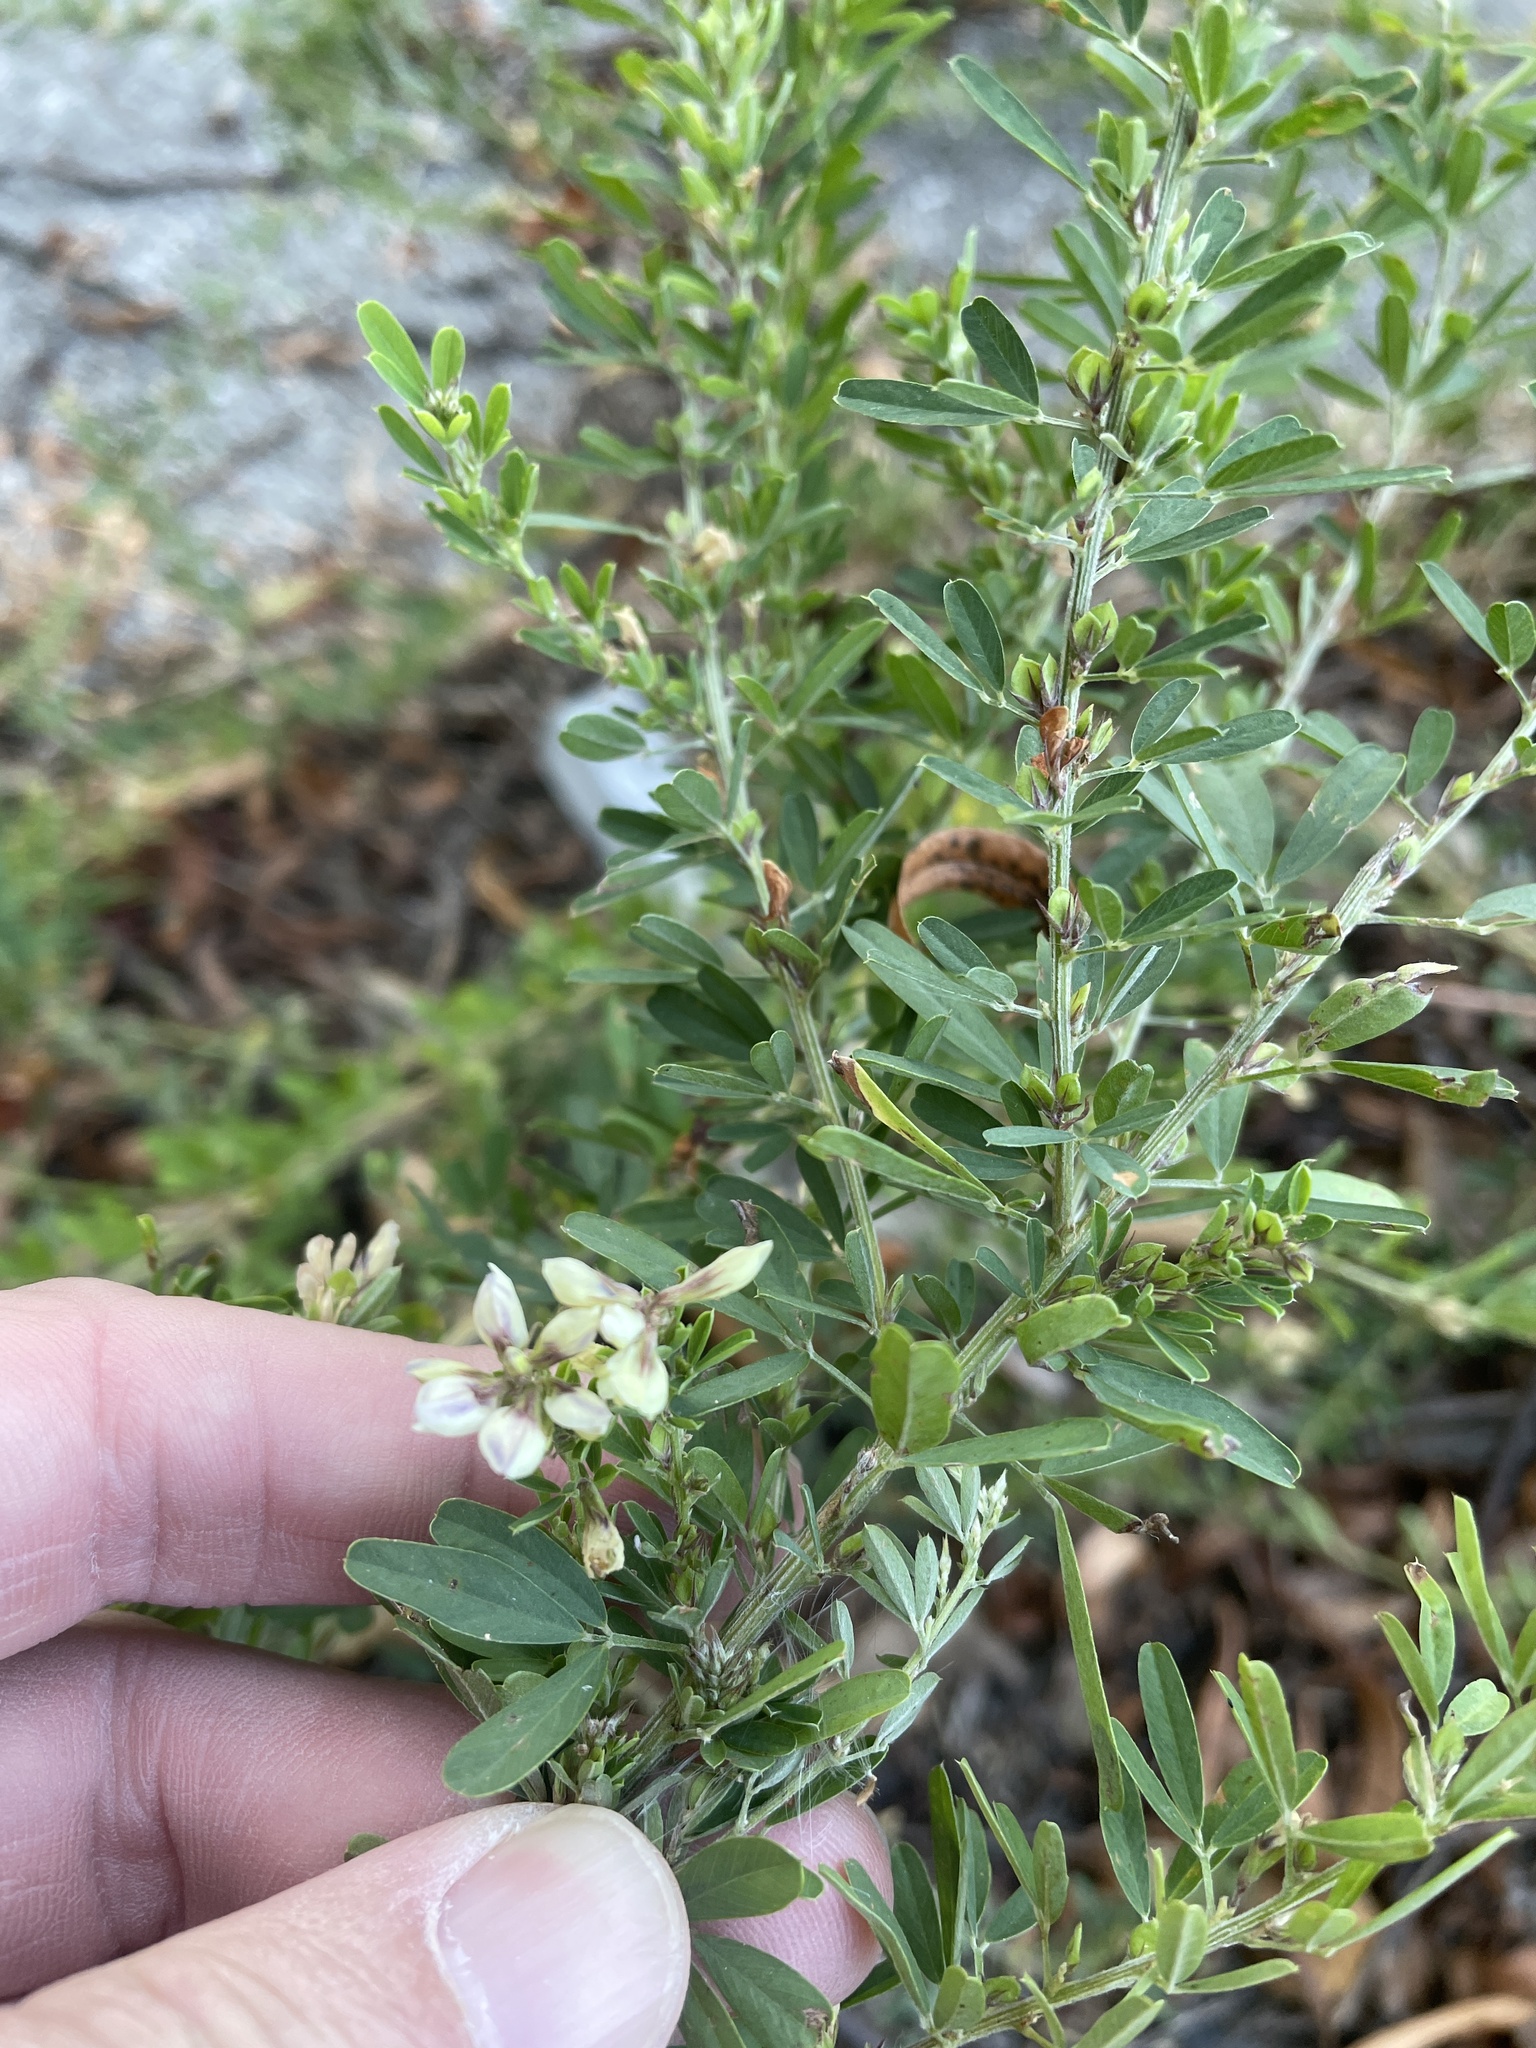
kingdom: Plantae
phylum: Tracheophyta
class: Magnoliopsida
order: Fabales
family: Fabaceae
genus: Lespedeza
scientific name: Lespedeza cuneata
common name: Chinese bush-clover
